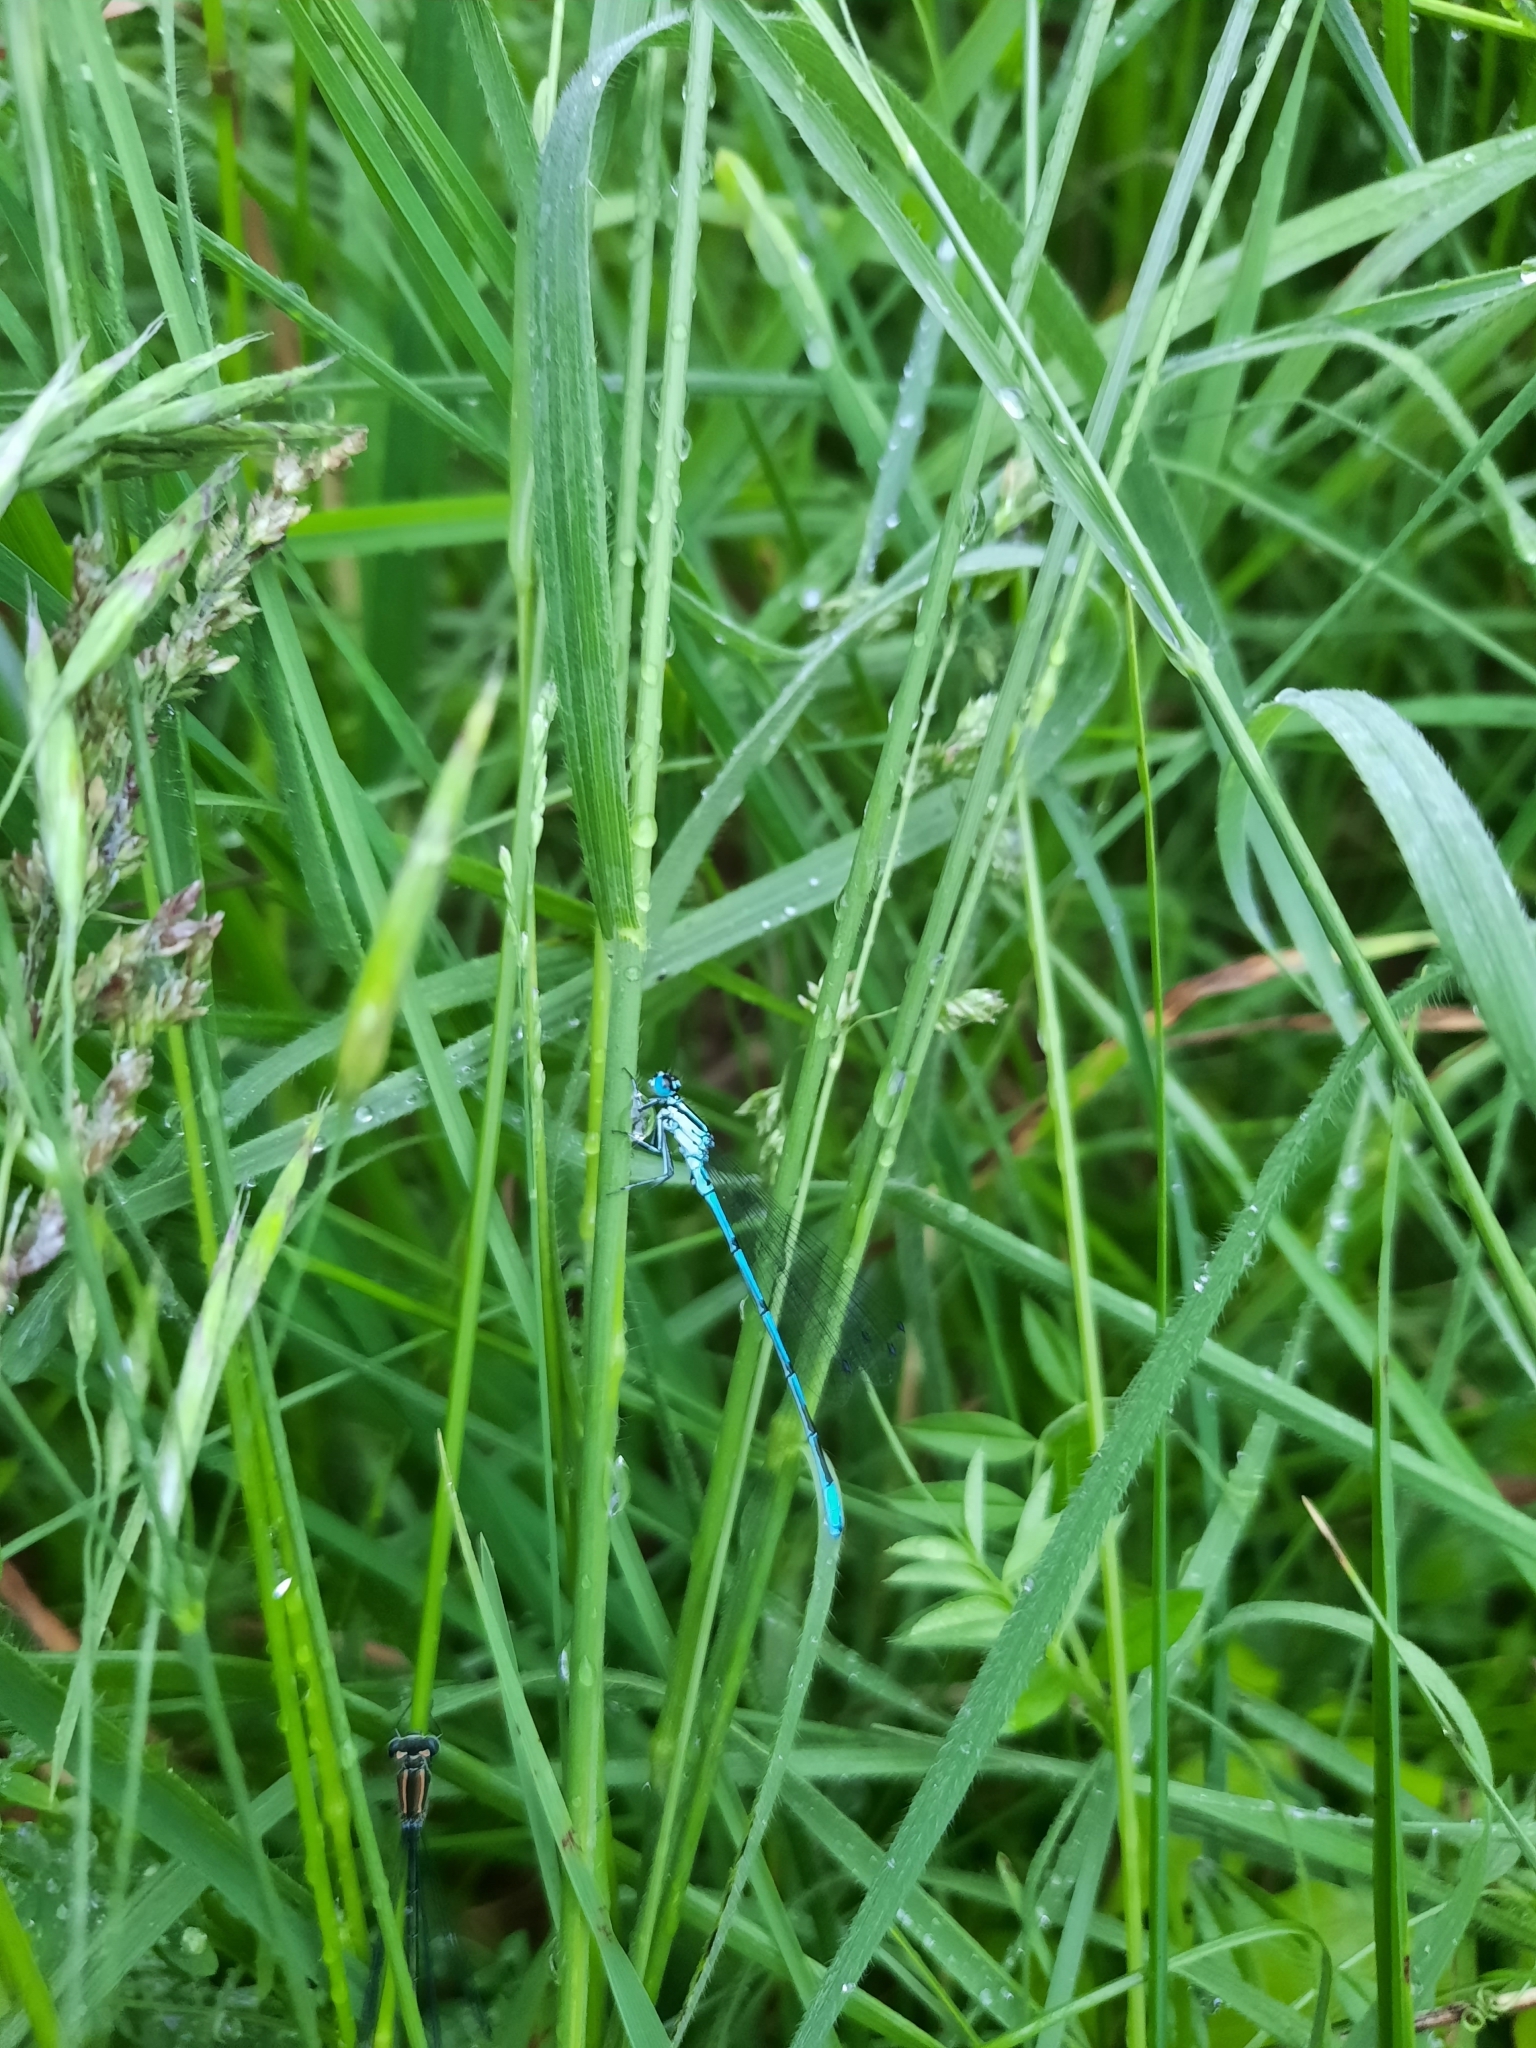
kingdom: Animalia
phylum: Arthropoda
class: Insecta
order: Odonata
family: Coenagrionidae
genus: Coenagrion
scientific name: Coenagrion puella
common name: Azure damselfly
